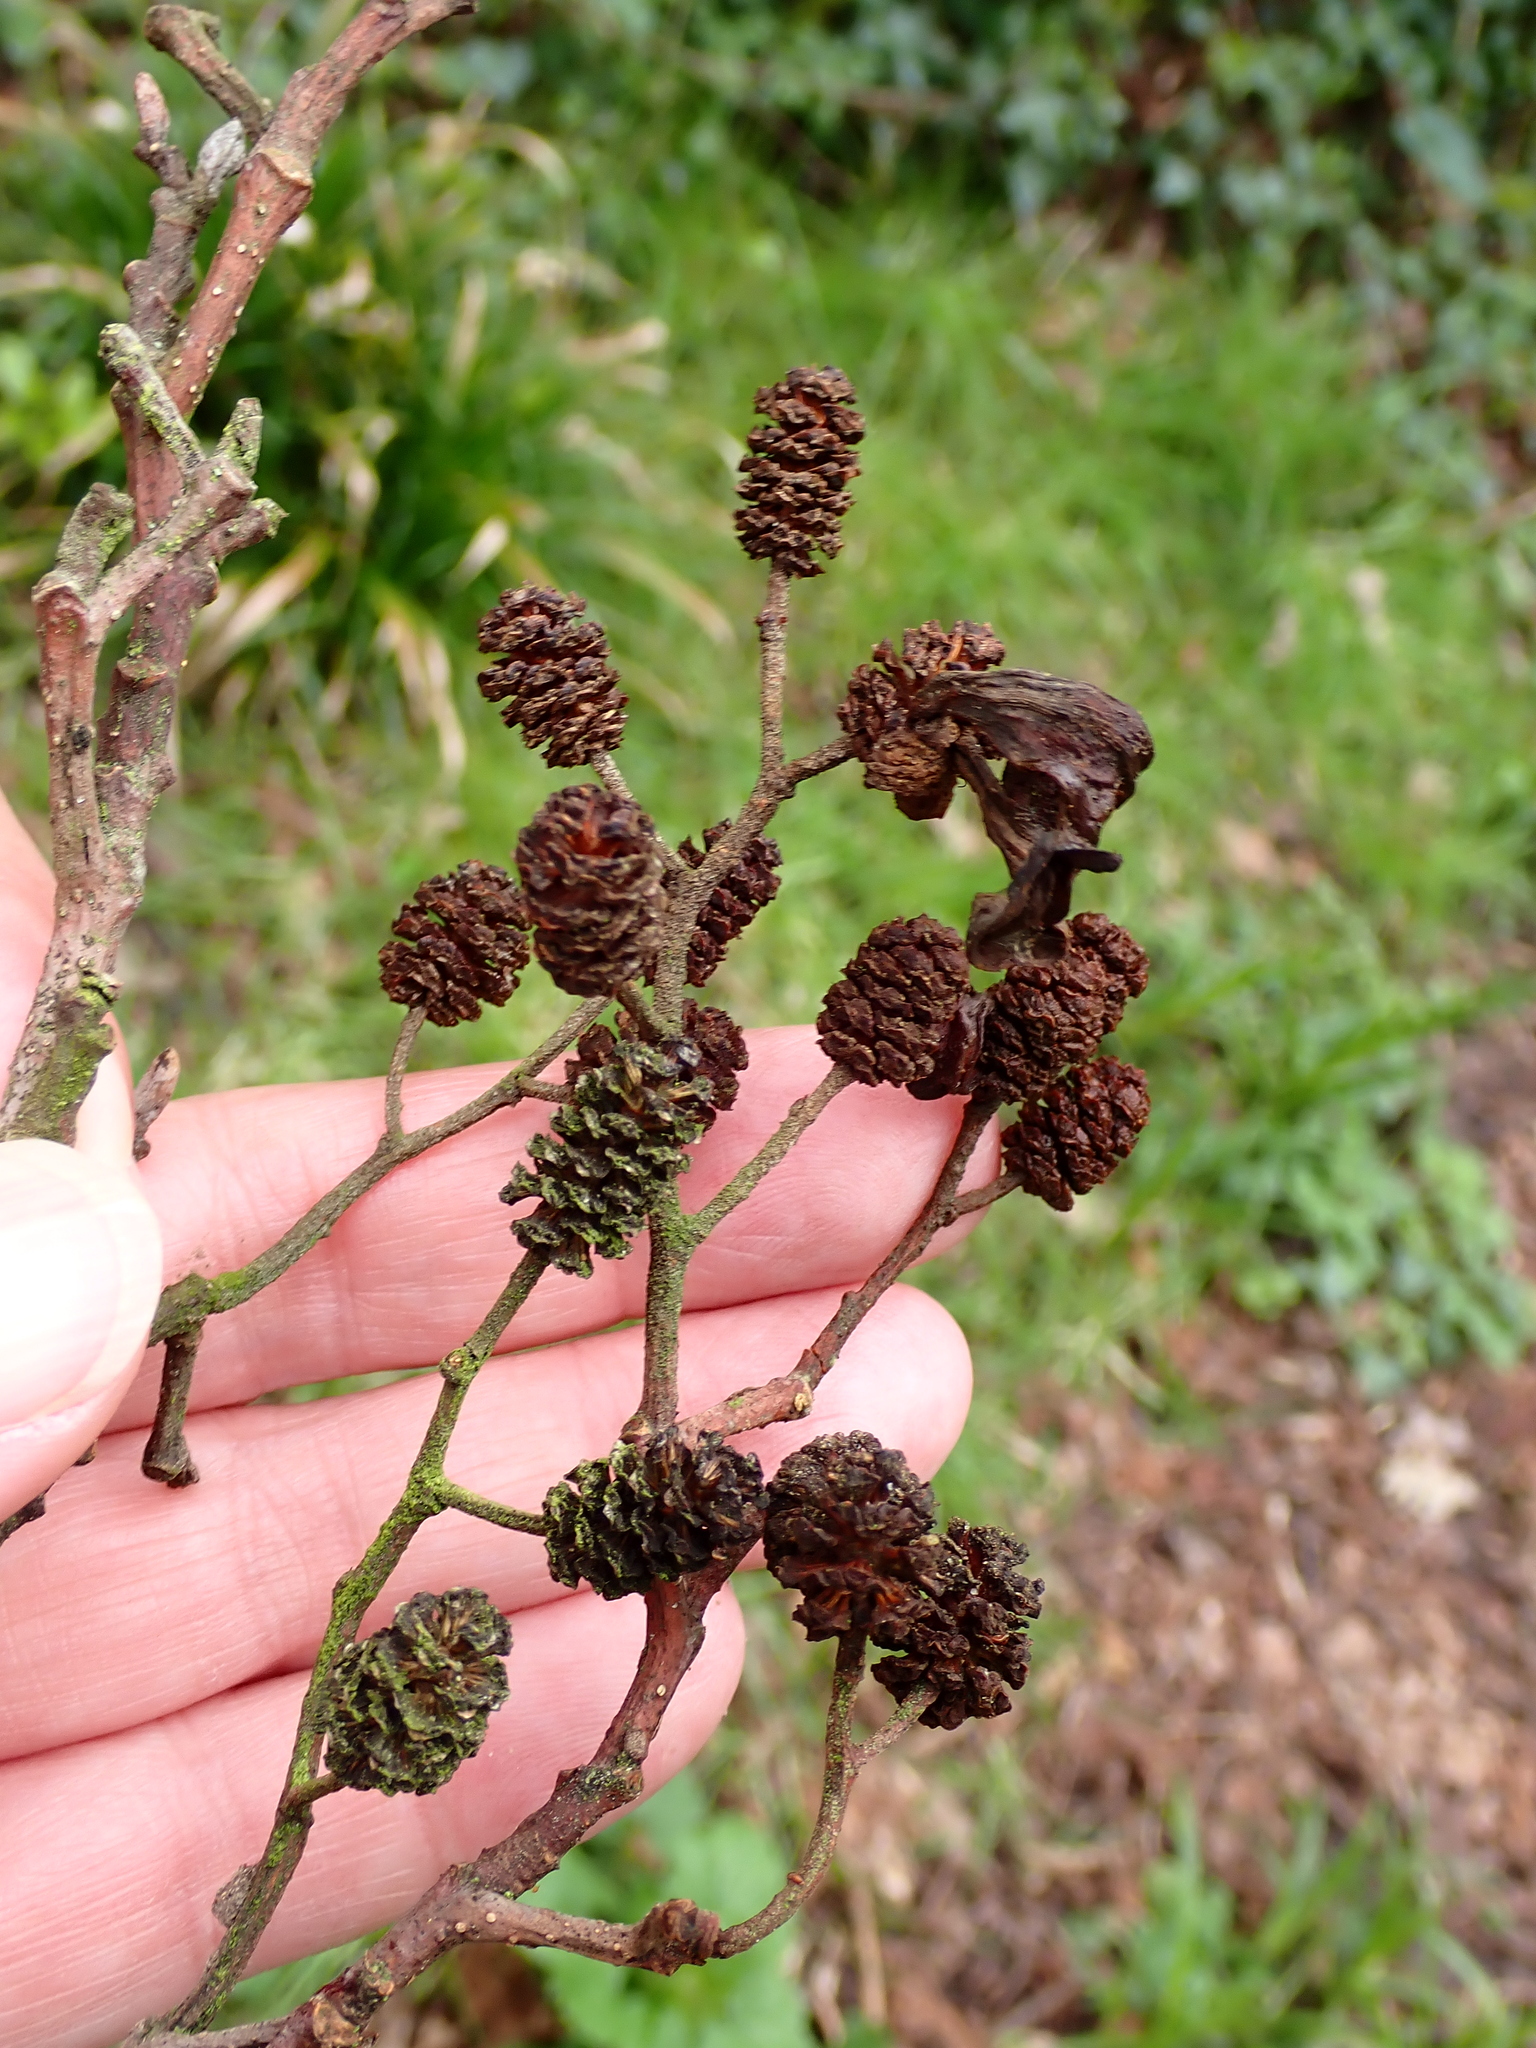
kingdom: Plantae
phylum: Tracheophyta
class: Magnoliopsida
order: Fagales
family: Betulaceae
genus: Alnus
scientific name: Alnus glutinosa
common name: Black alder
